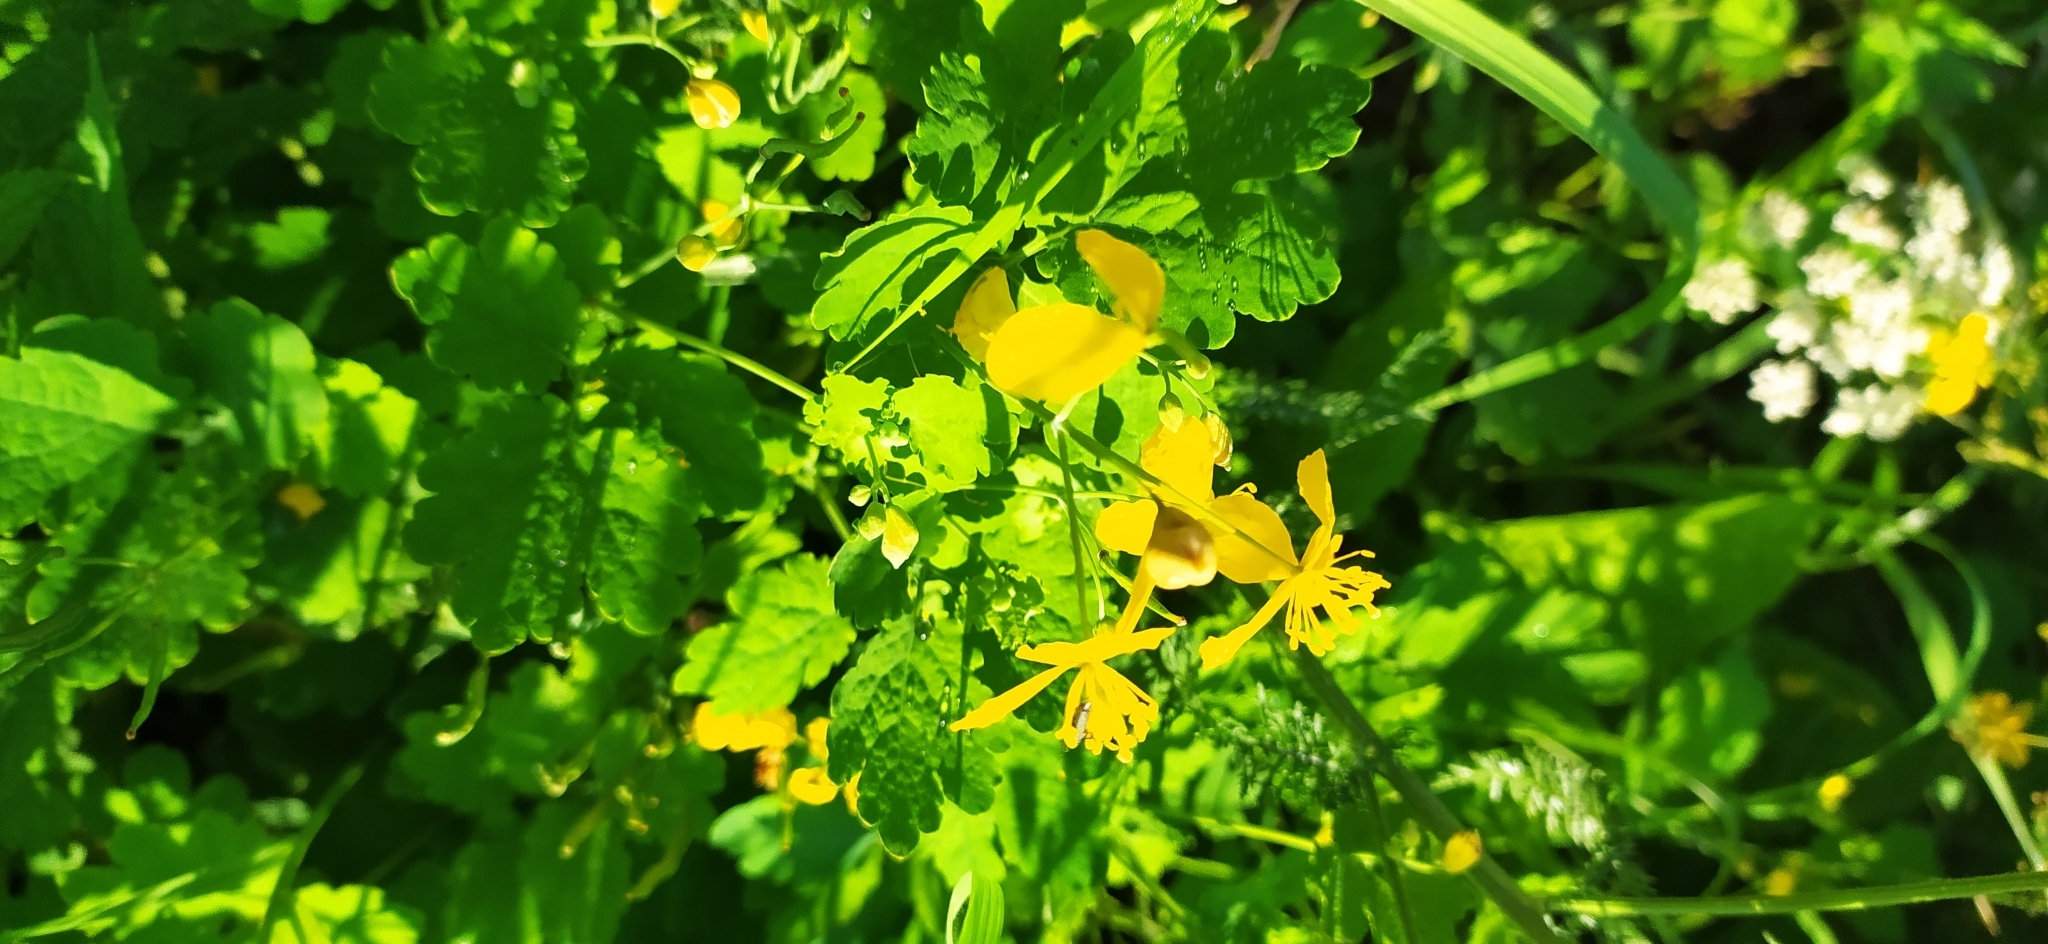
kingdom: Plantae
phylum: Tracheophyta
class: Magnoliopsida
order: Ranunculales
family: Papaveraceae
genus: Chelidonium
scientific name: Chelidonium majus
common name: Greater celandine
